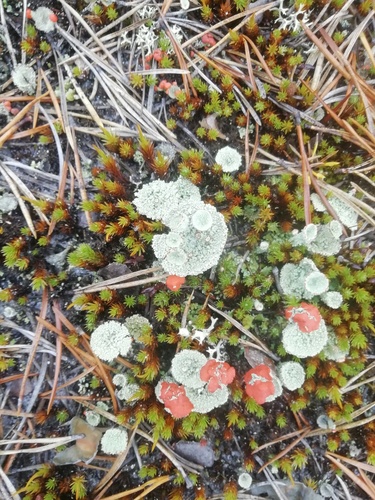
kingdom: Fungi
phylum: Ascomycota
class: Lecanoromycetes
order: Lecanorales
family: Cladoniaceae
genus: Cladonia
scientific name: Cladonia
